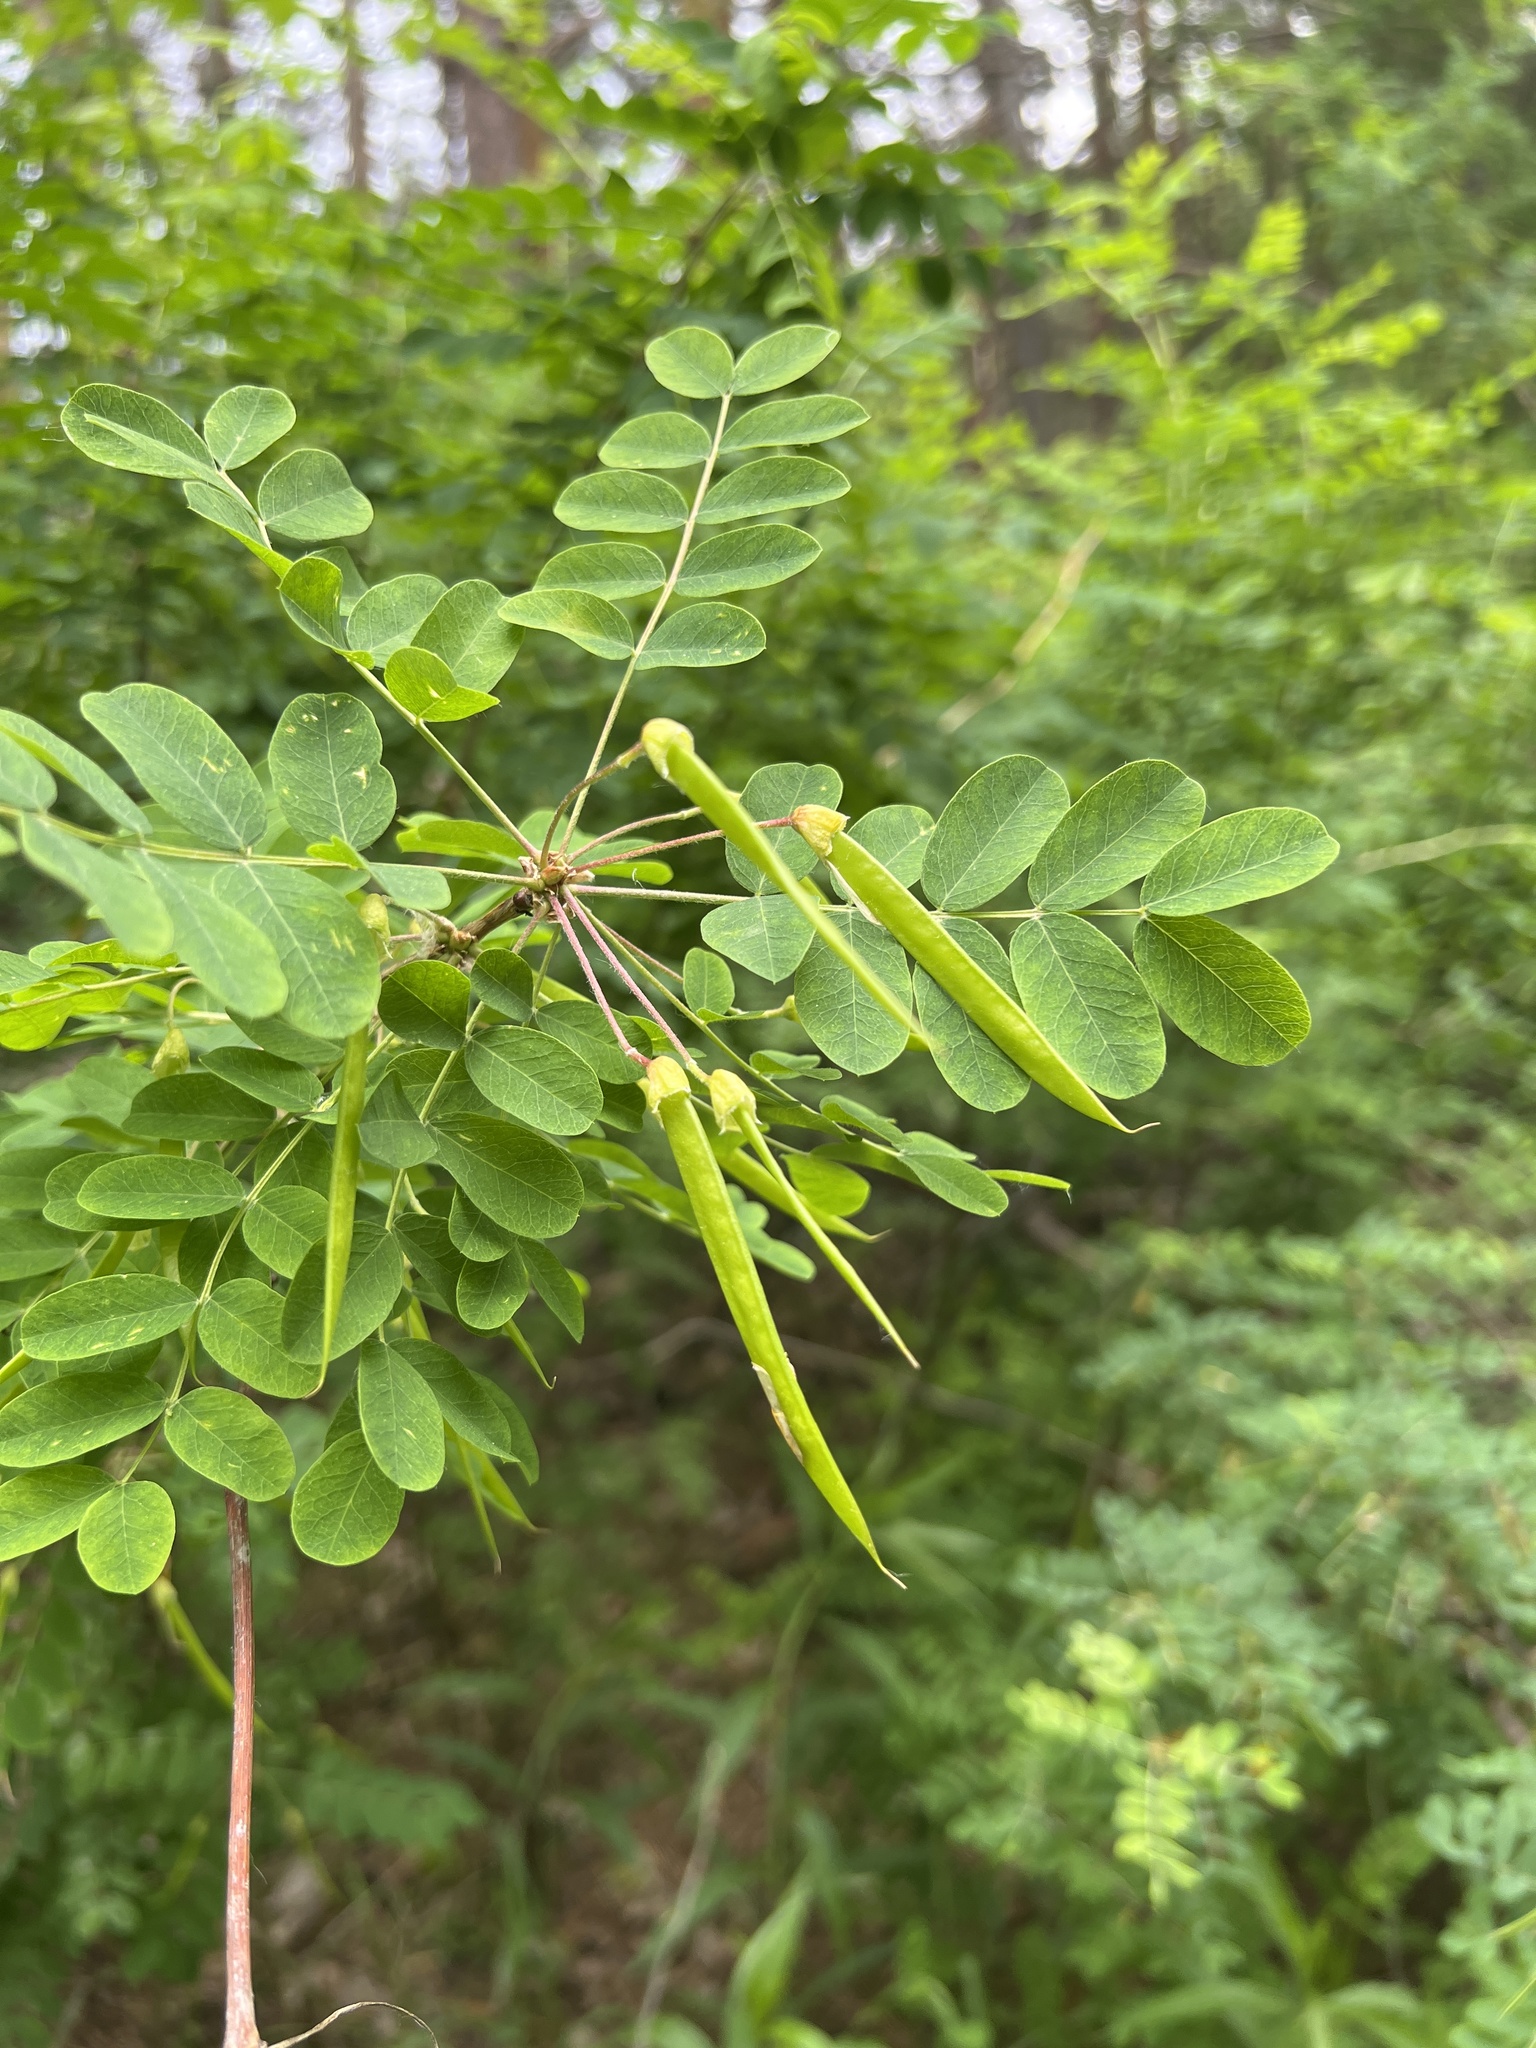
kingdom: Plantae
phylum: Tracheophyta
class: Magnoliopsida
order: Fabales
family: Fabaceae
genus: Caragana
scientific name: Caragana arborescens
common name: Siberian peashrub
